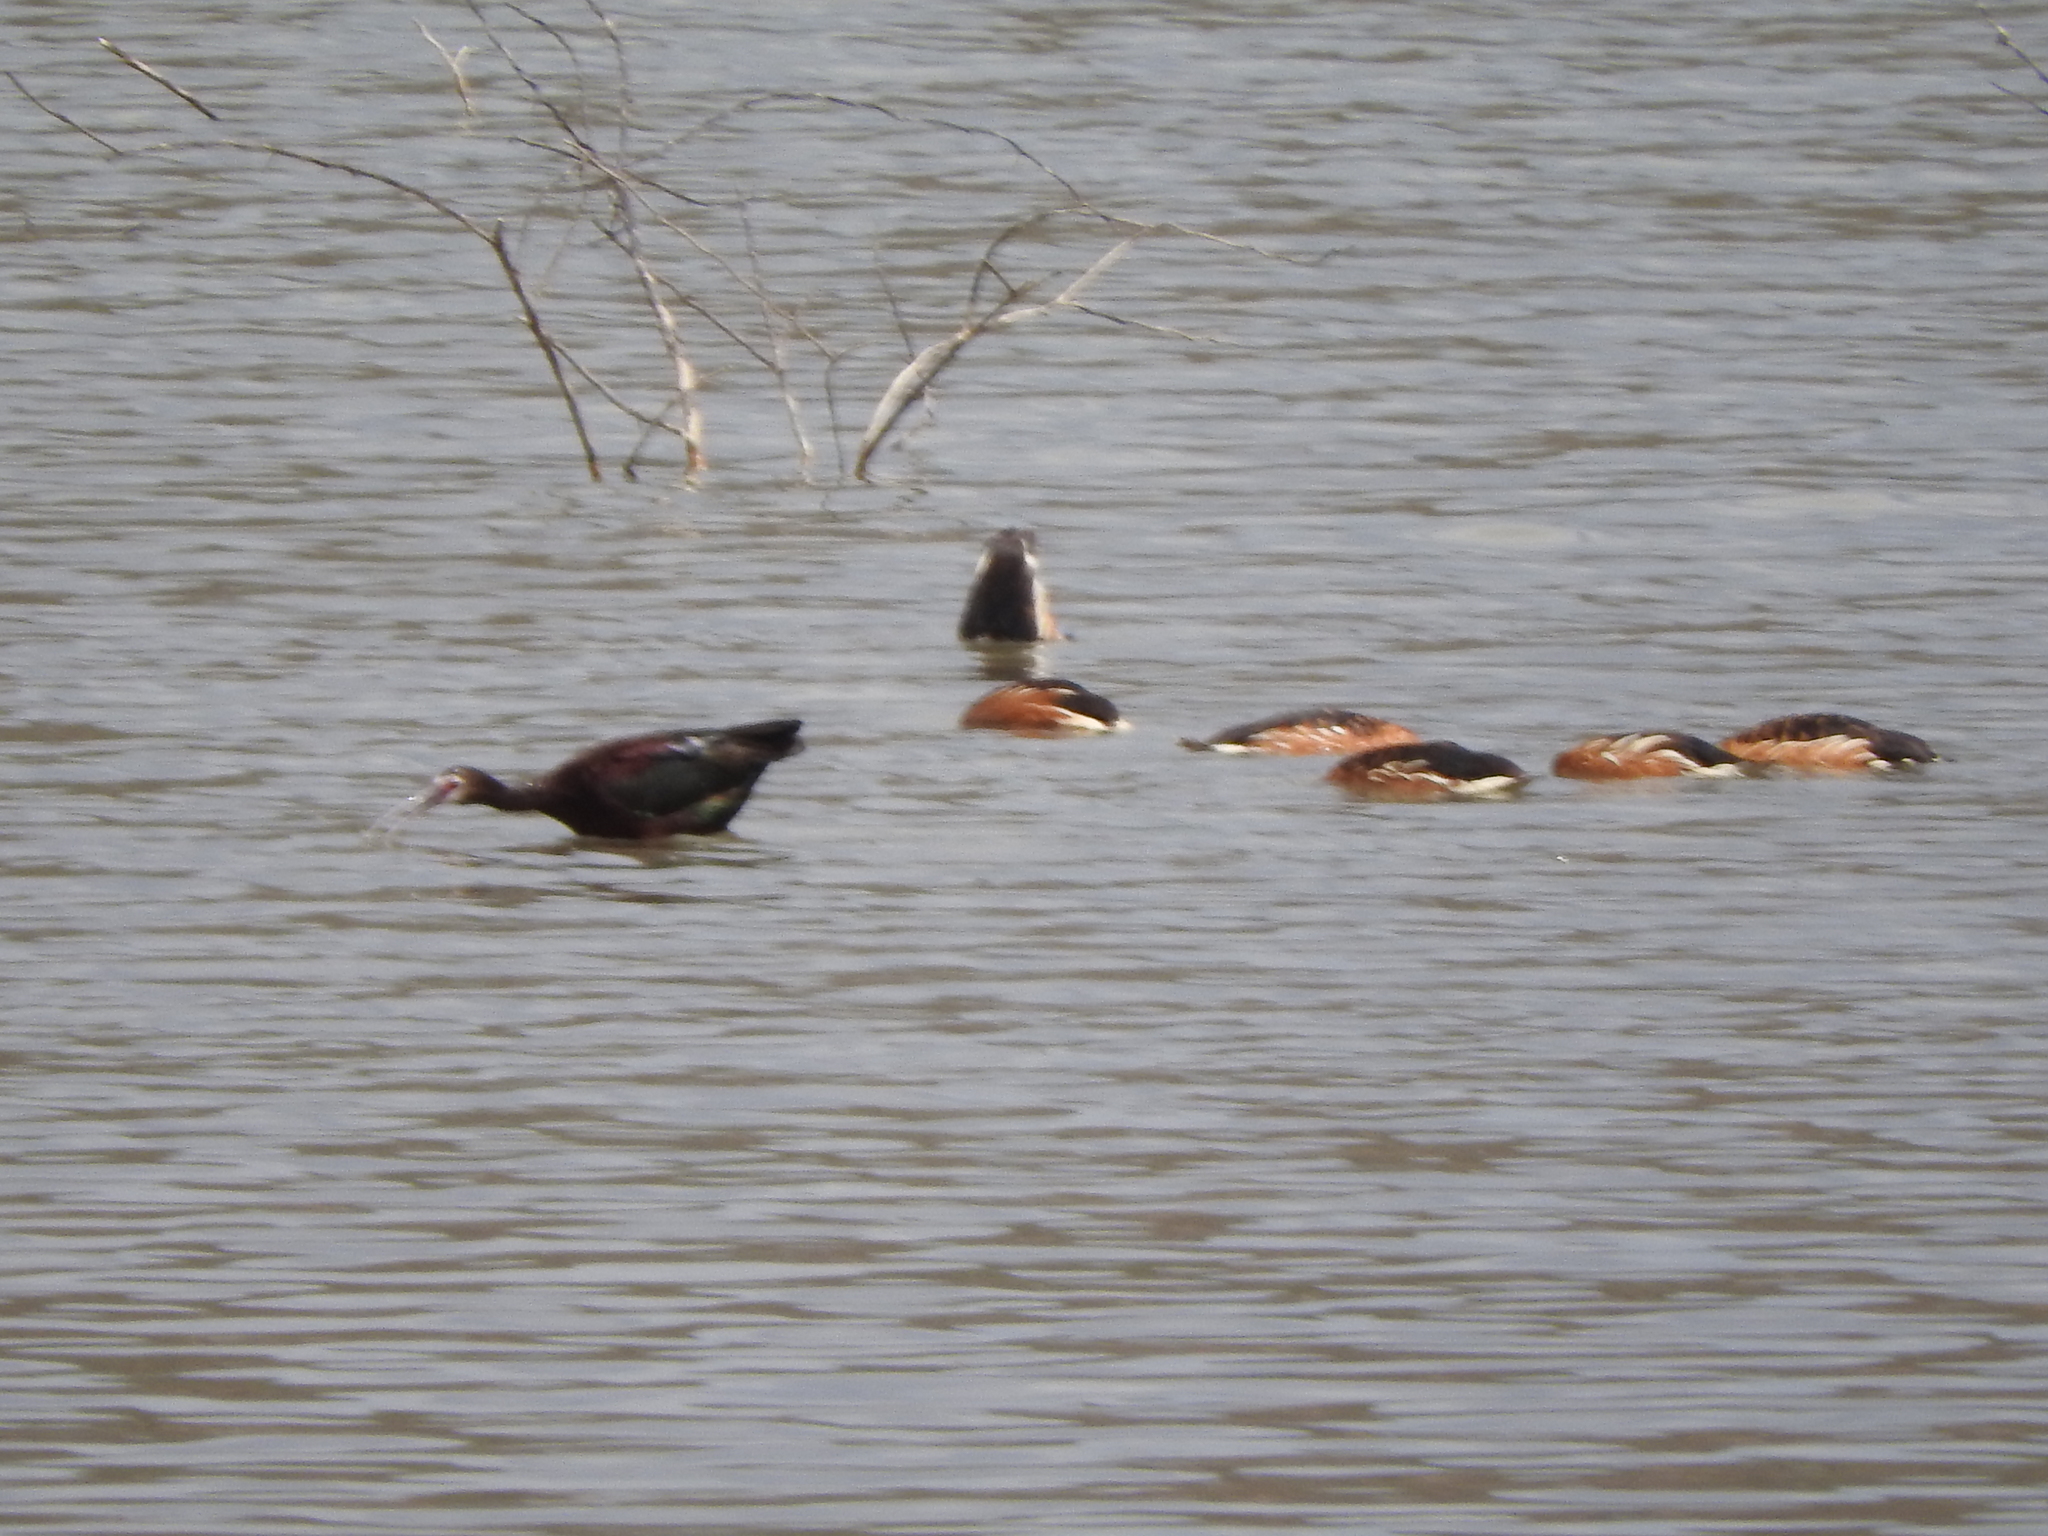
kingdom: Animalia
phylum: Chordata
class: Aves
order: Pelecaniformes
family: Threskiornithidae
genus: Plegadis
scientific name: Plegadis chihi
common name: White-faced ibis
